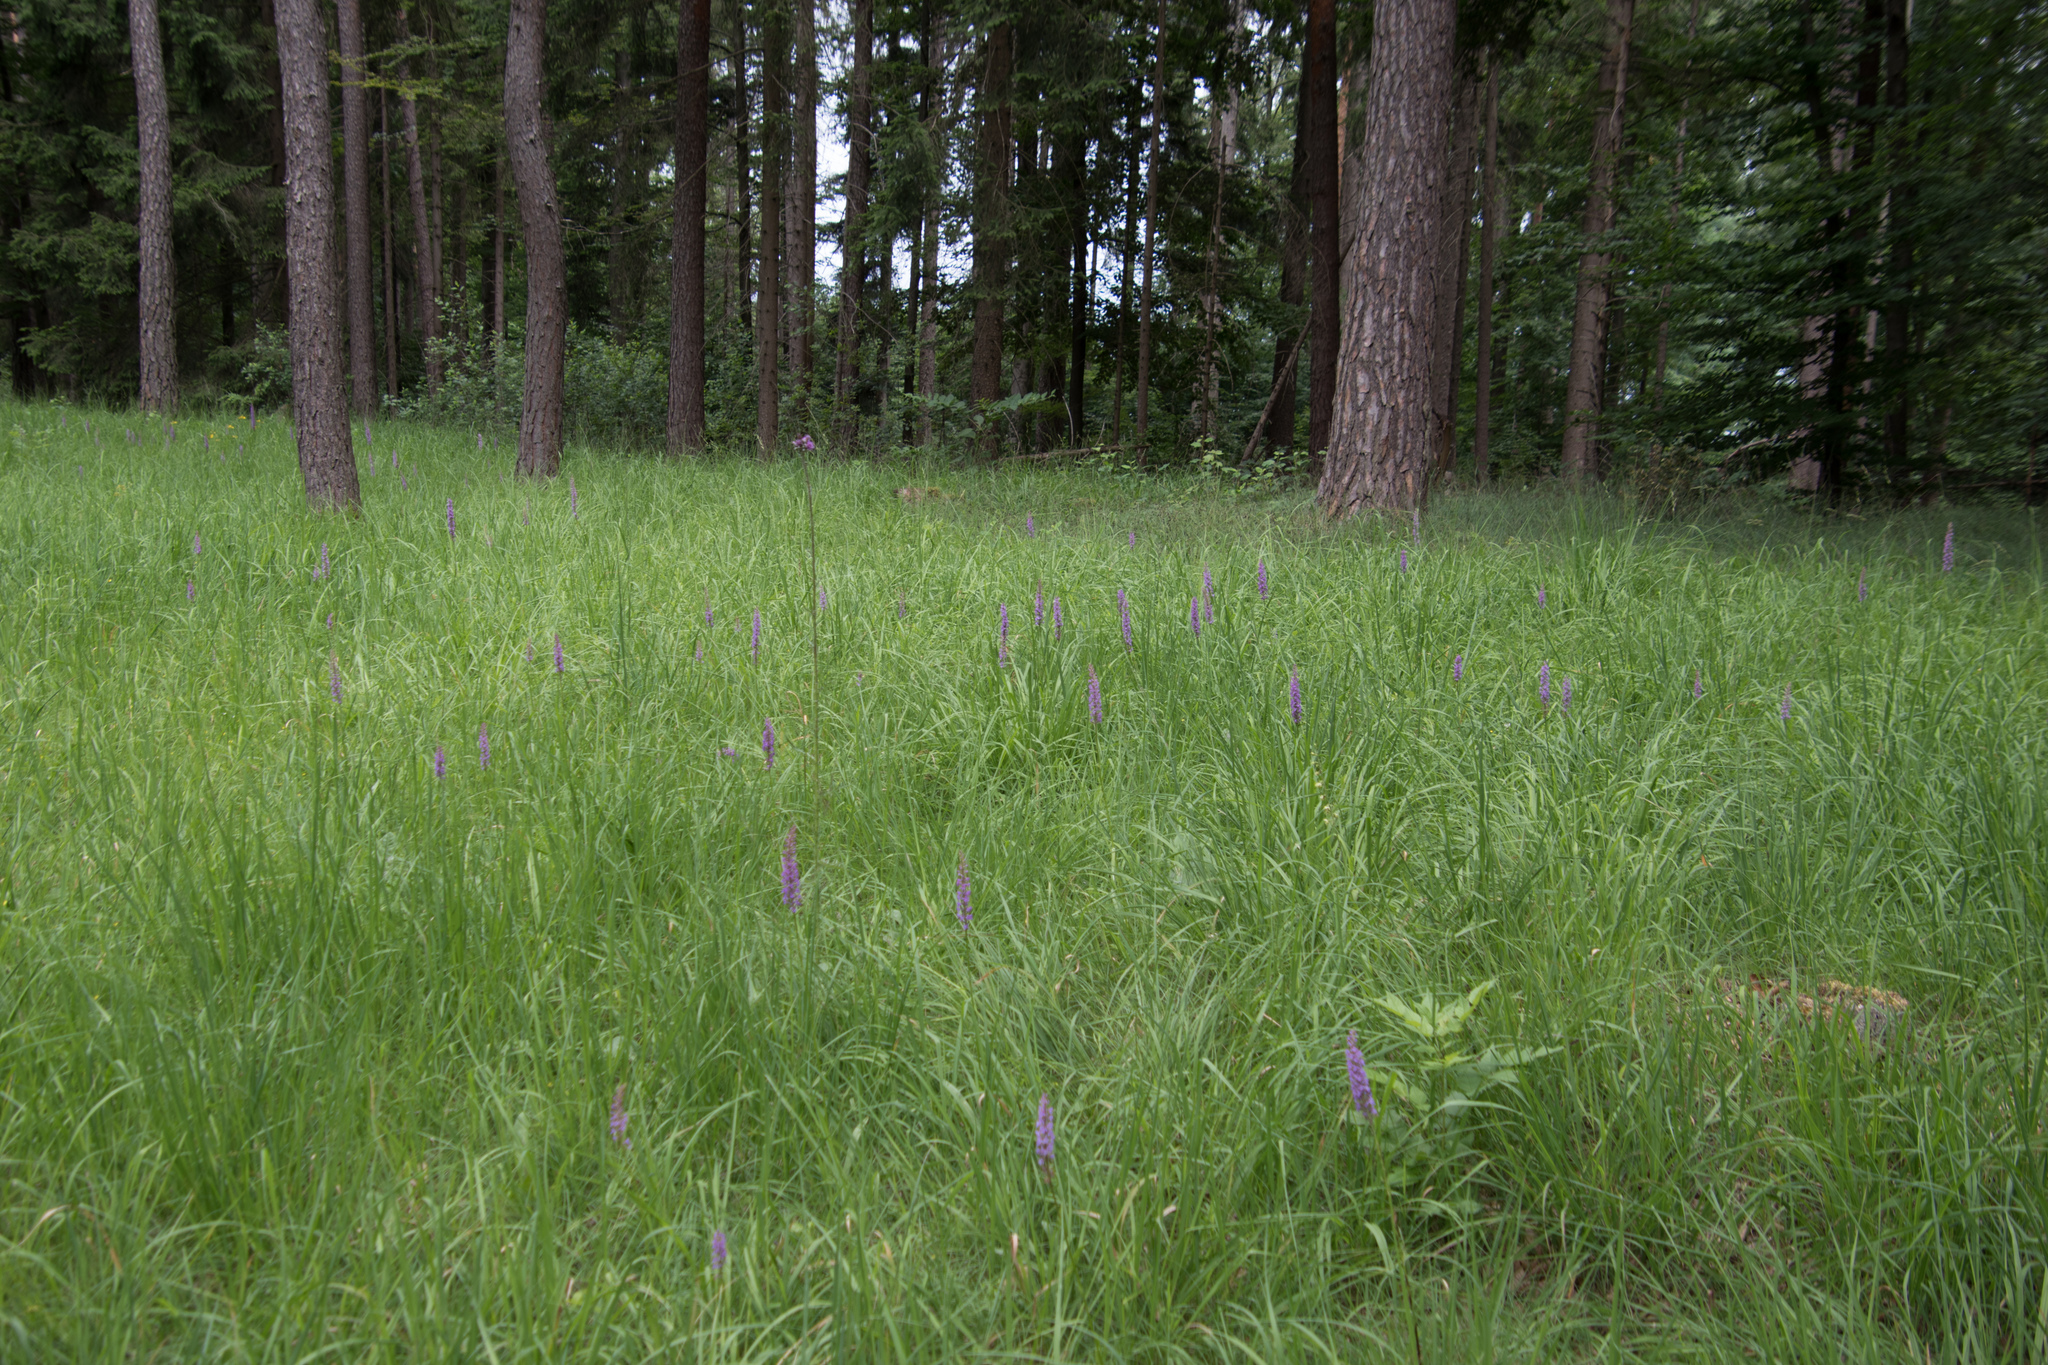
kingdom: Plantae
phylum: Tracheophyta
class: Liliopsida
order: Asparagales
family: Orchidaceae
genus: Gymnadenia
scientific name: Gymnadenia conopsea
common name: Fragrant orchid
